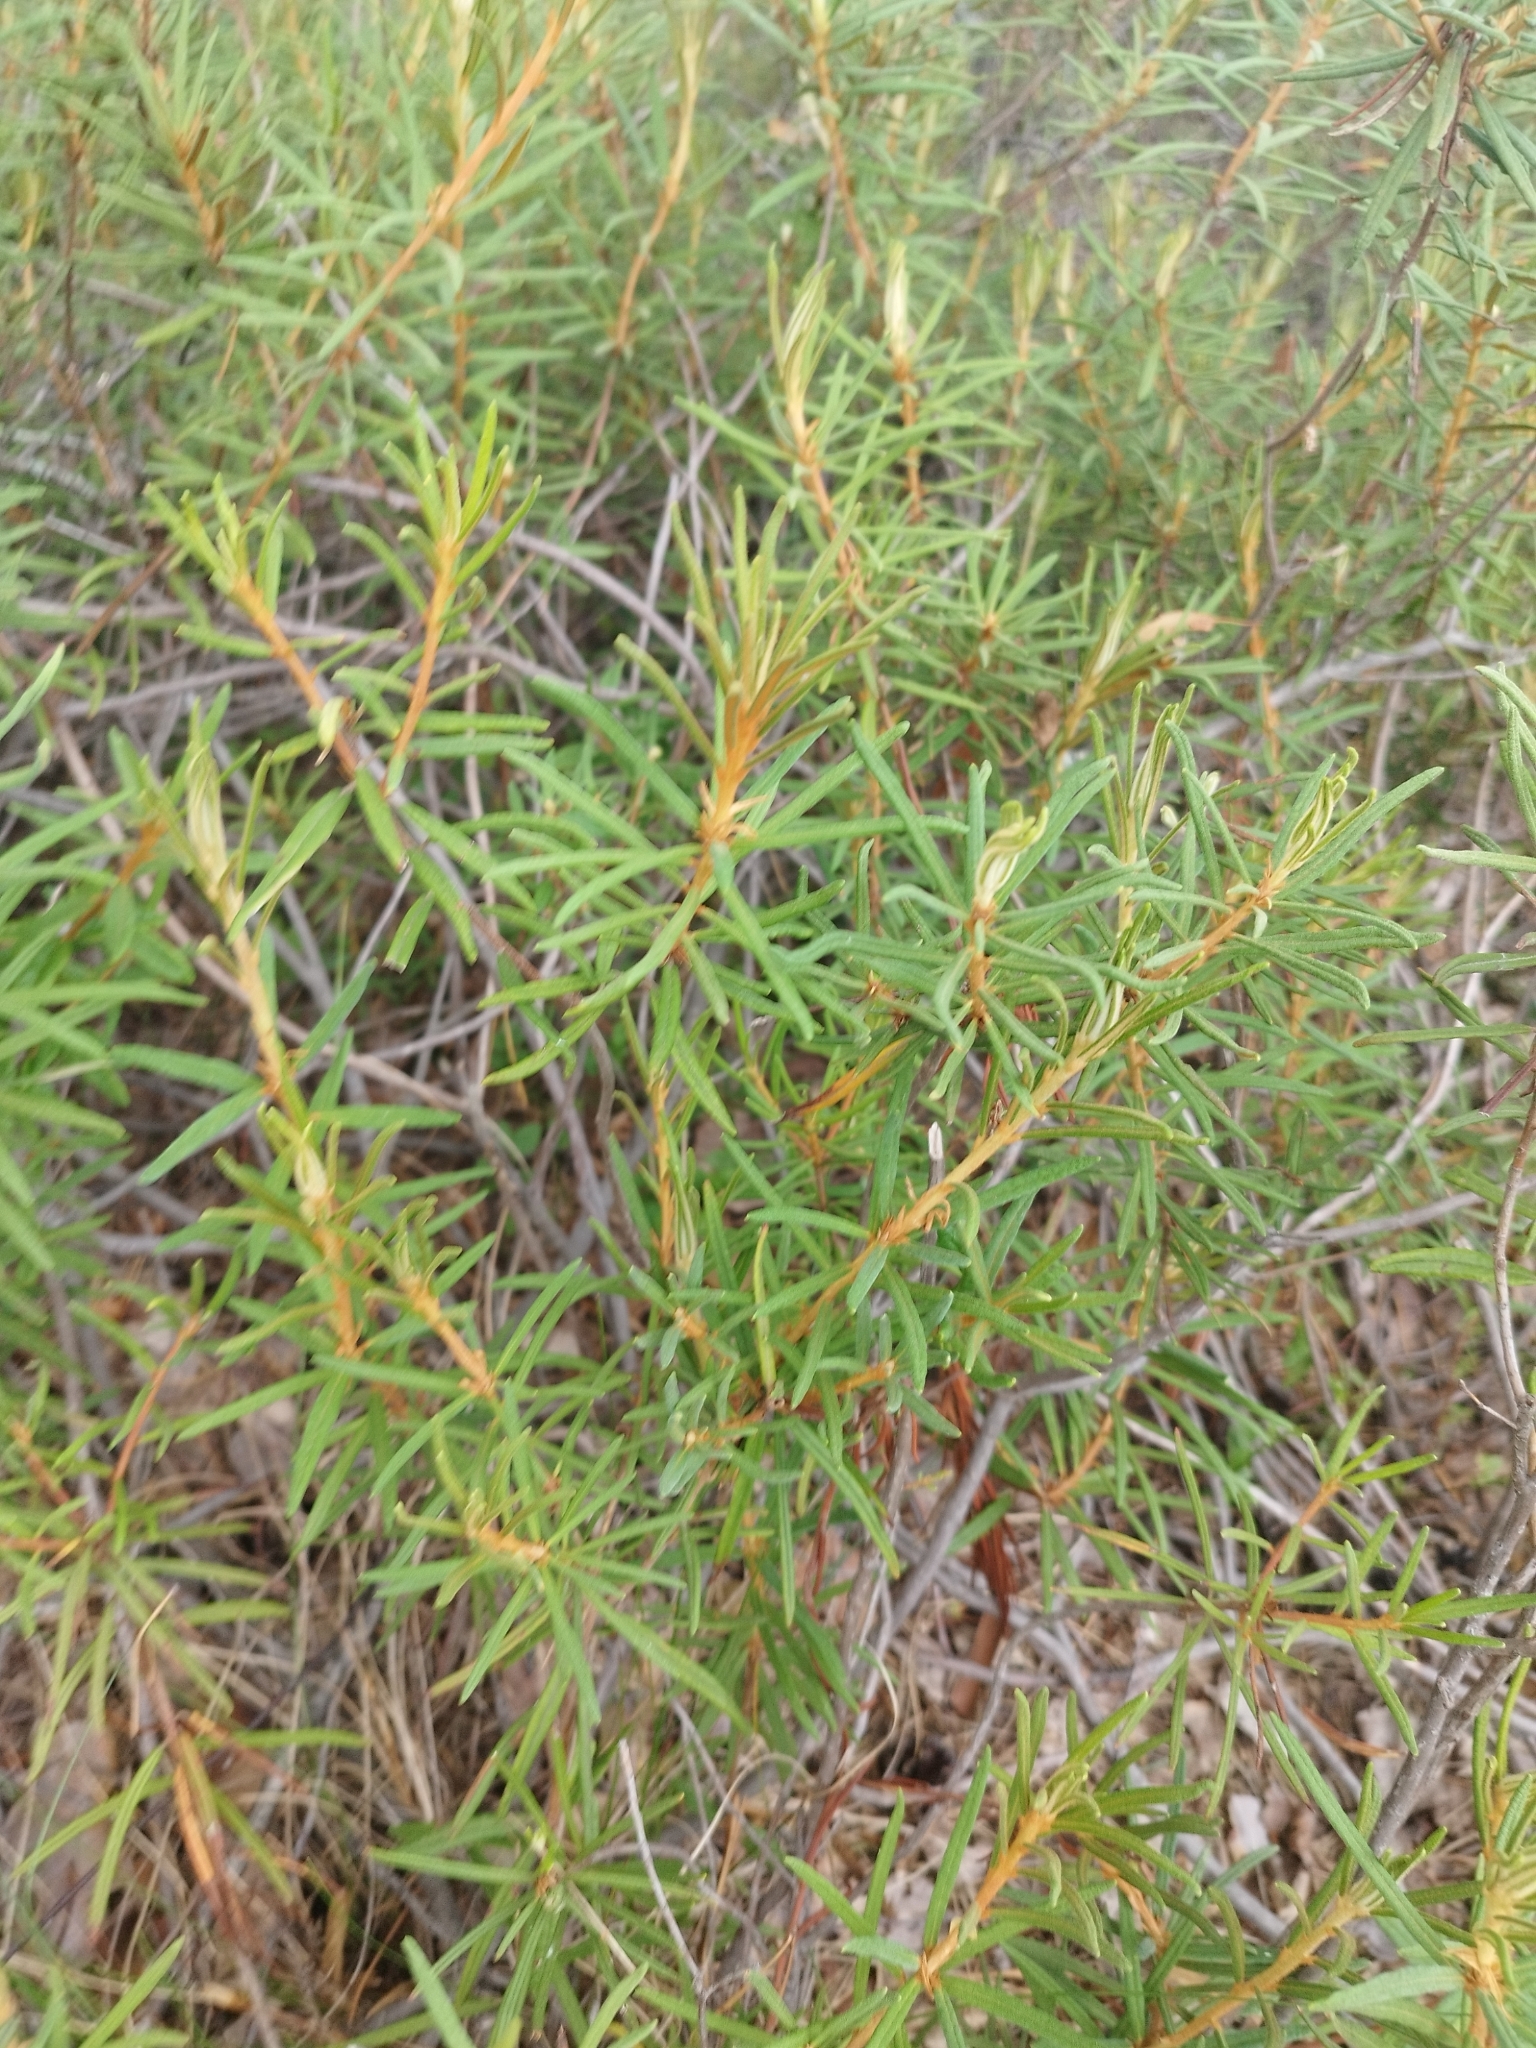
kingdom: Plantae
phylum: Tracheophyta
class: Magnoliopsida
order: Ericales
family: Ericaceae
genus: Rhododendron
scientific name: Rhododendron tomentosum
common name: Marsh labrador tea
